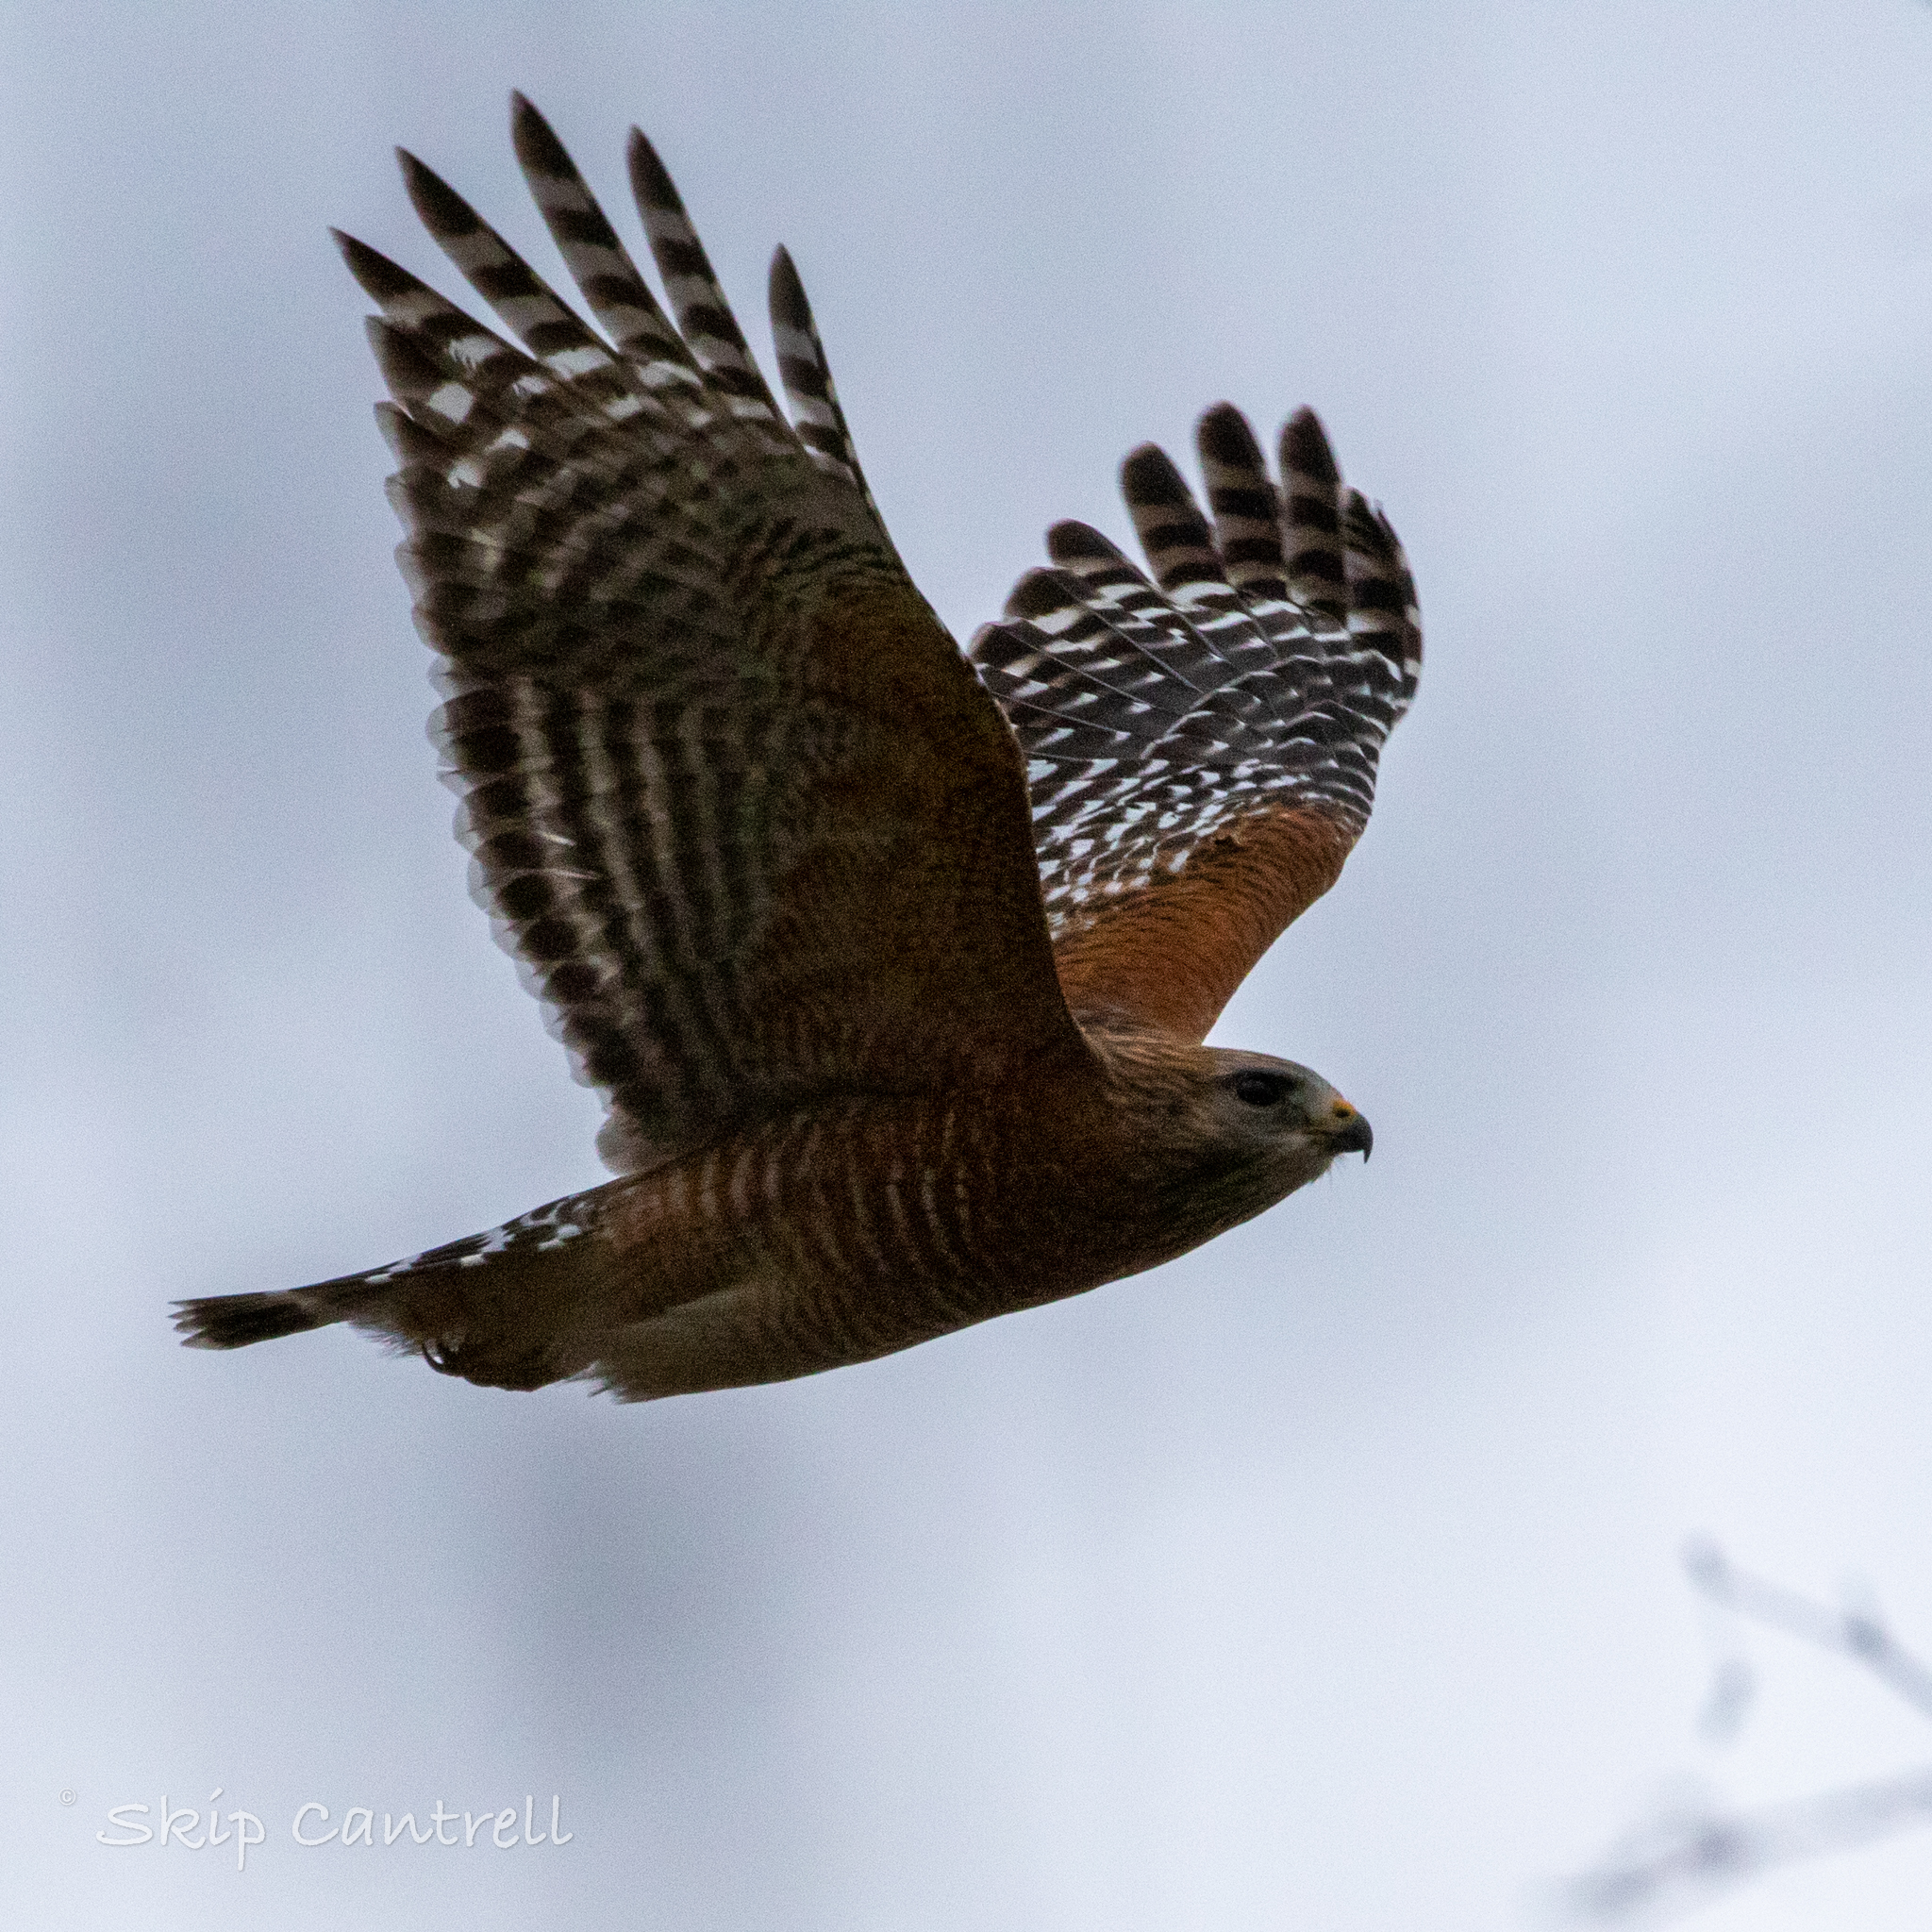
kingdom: Animalia
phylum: Chordata
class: Aves
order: Accipitriformes
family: Accipitridae
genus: Buteo
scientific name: Buteo lineatus
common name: Red-shouldered hawk
